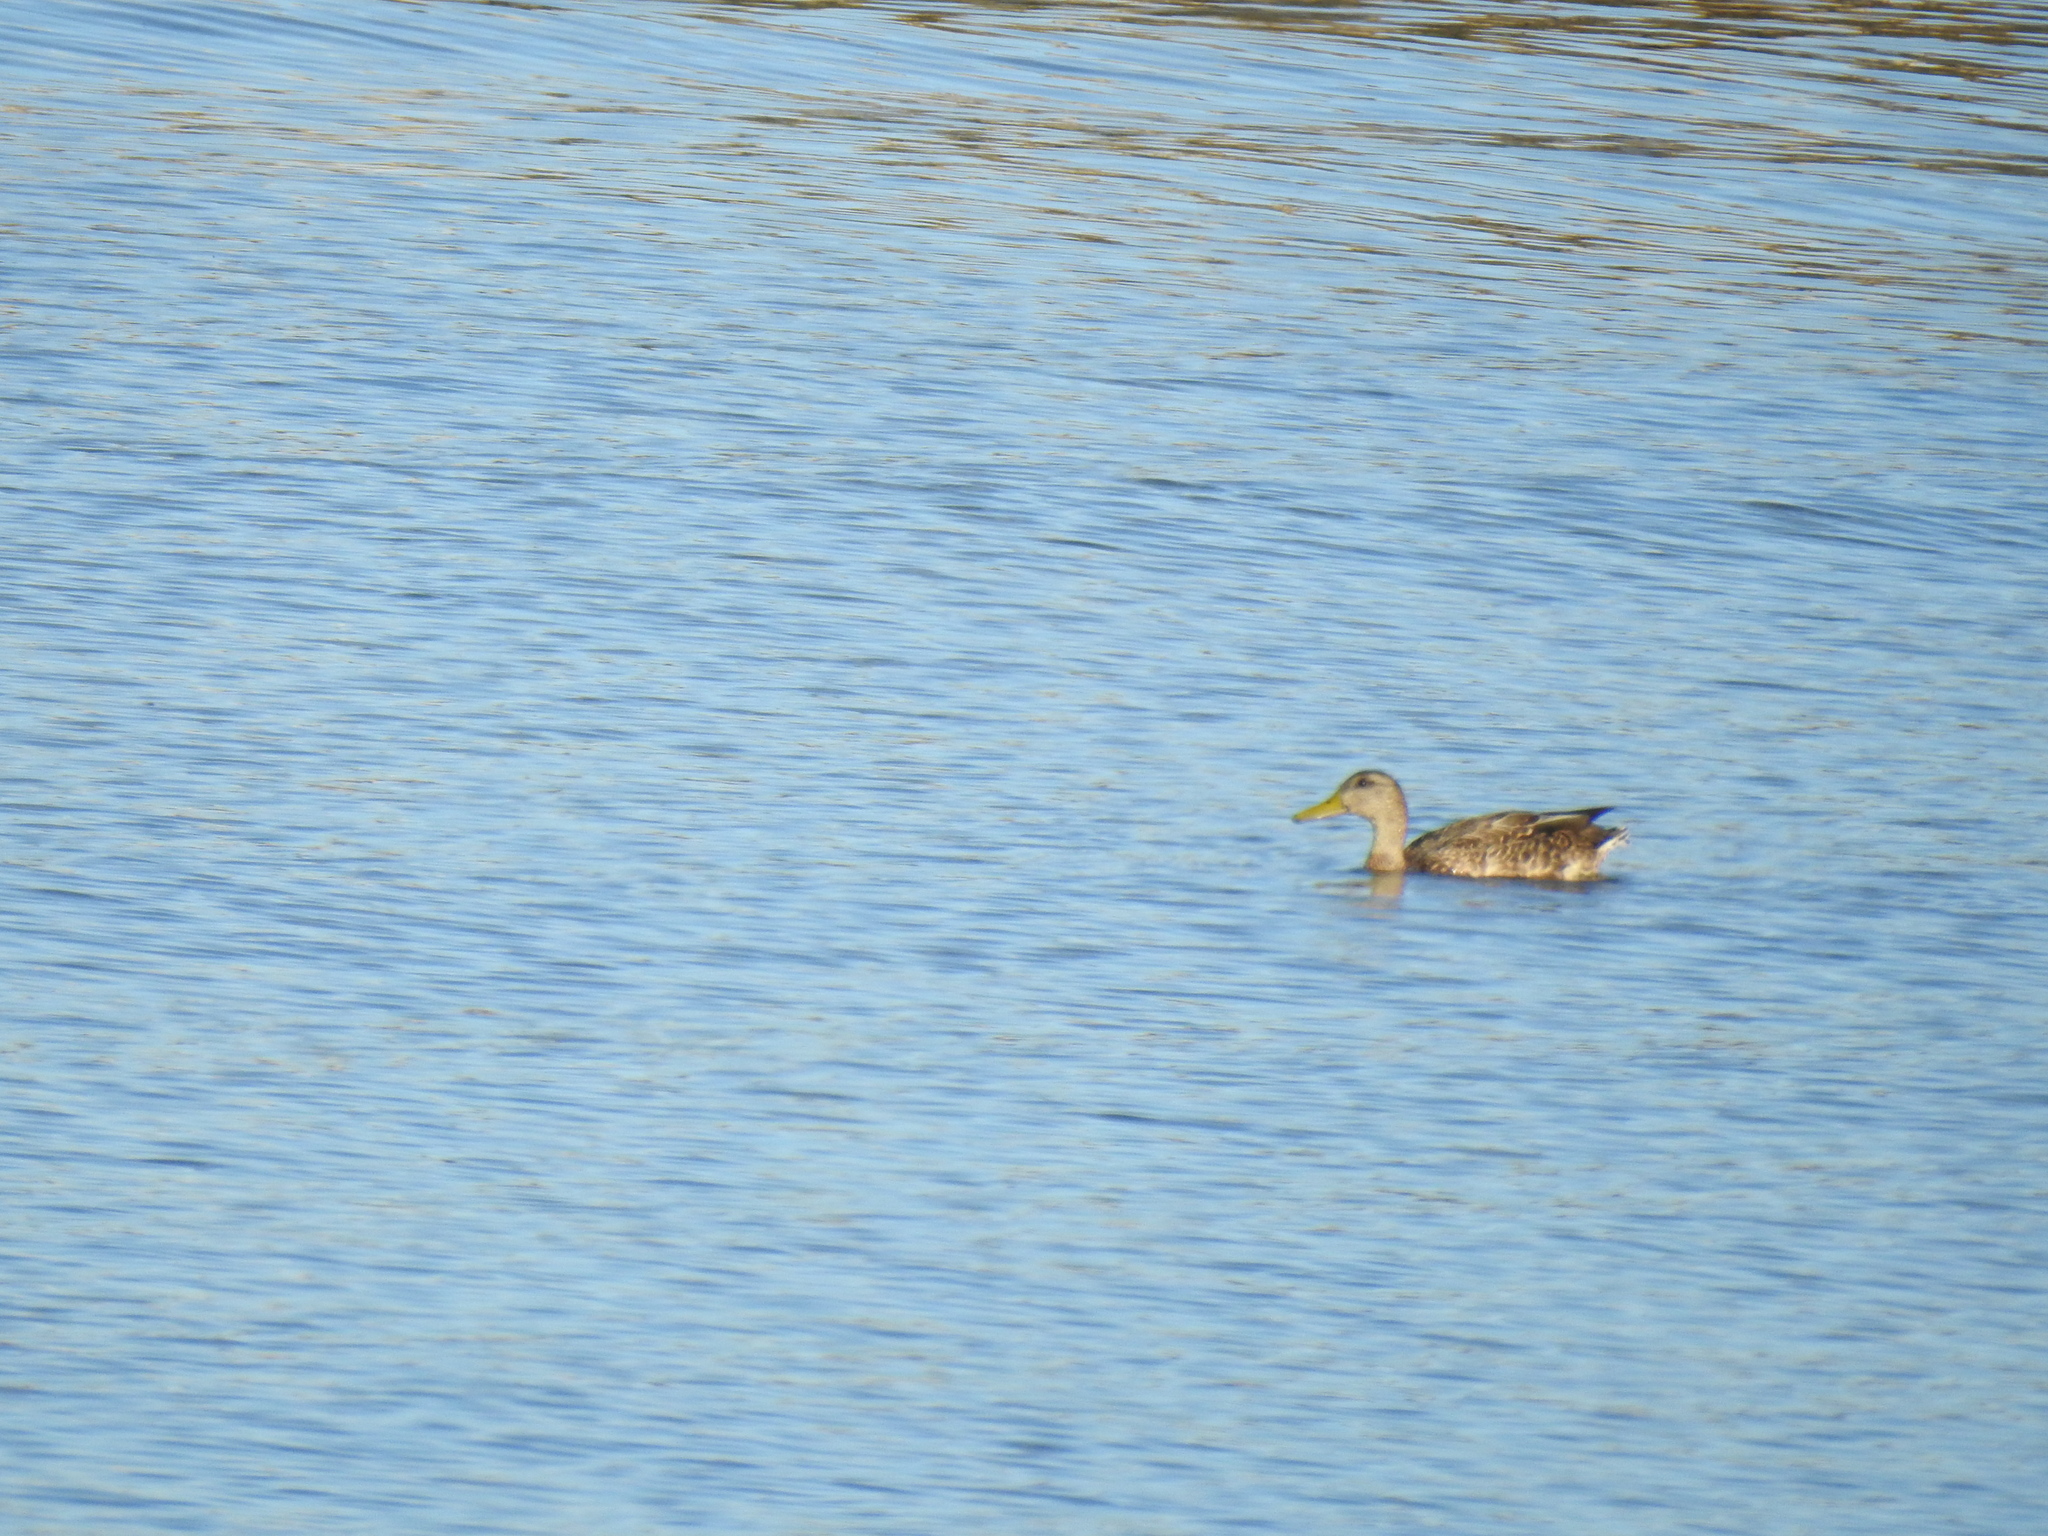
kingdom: Animalia
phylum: Chordata
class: Aves
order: Anseriformes
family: Anatidae
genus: Anas
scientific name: Anas platyrhynchos
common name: Mallard
